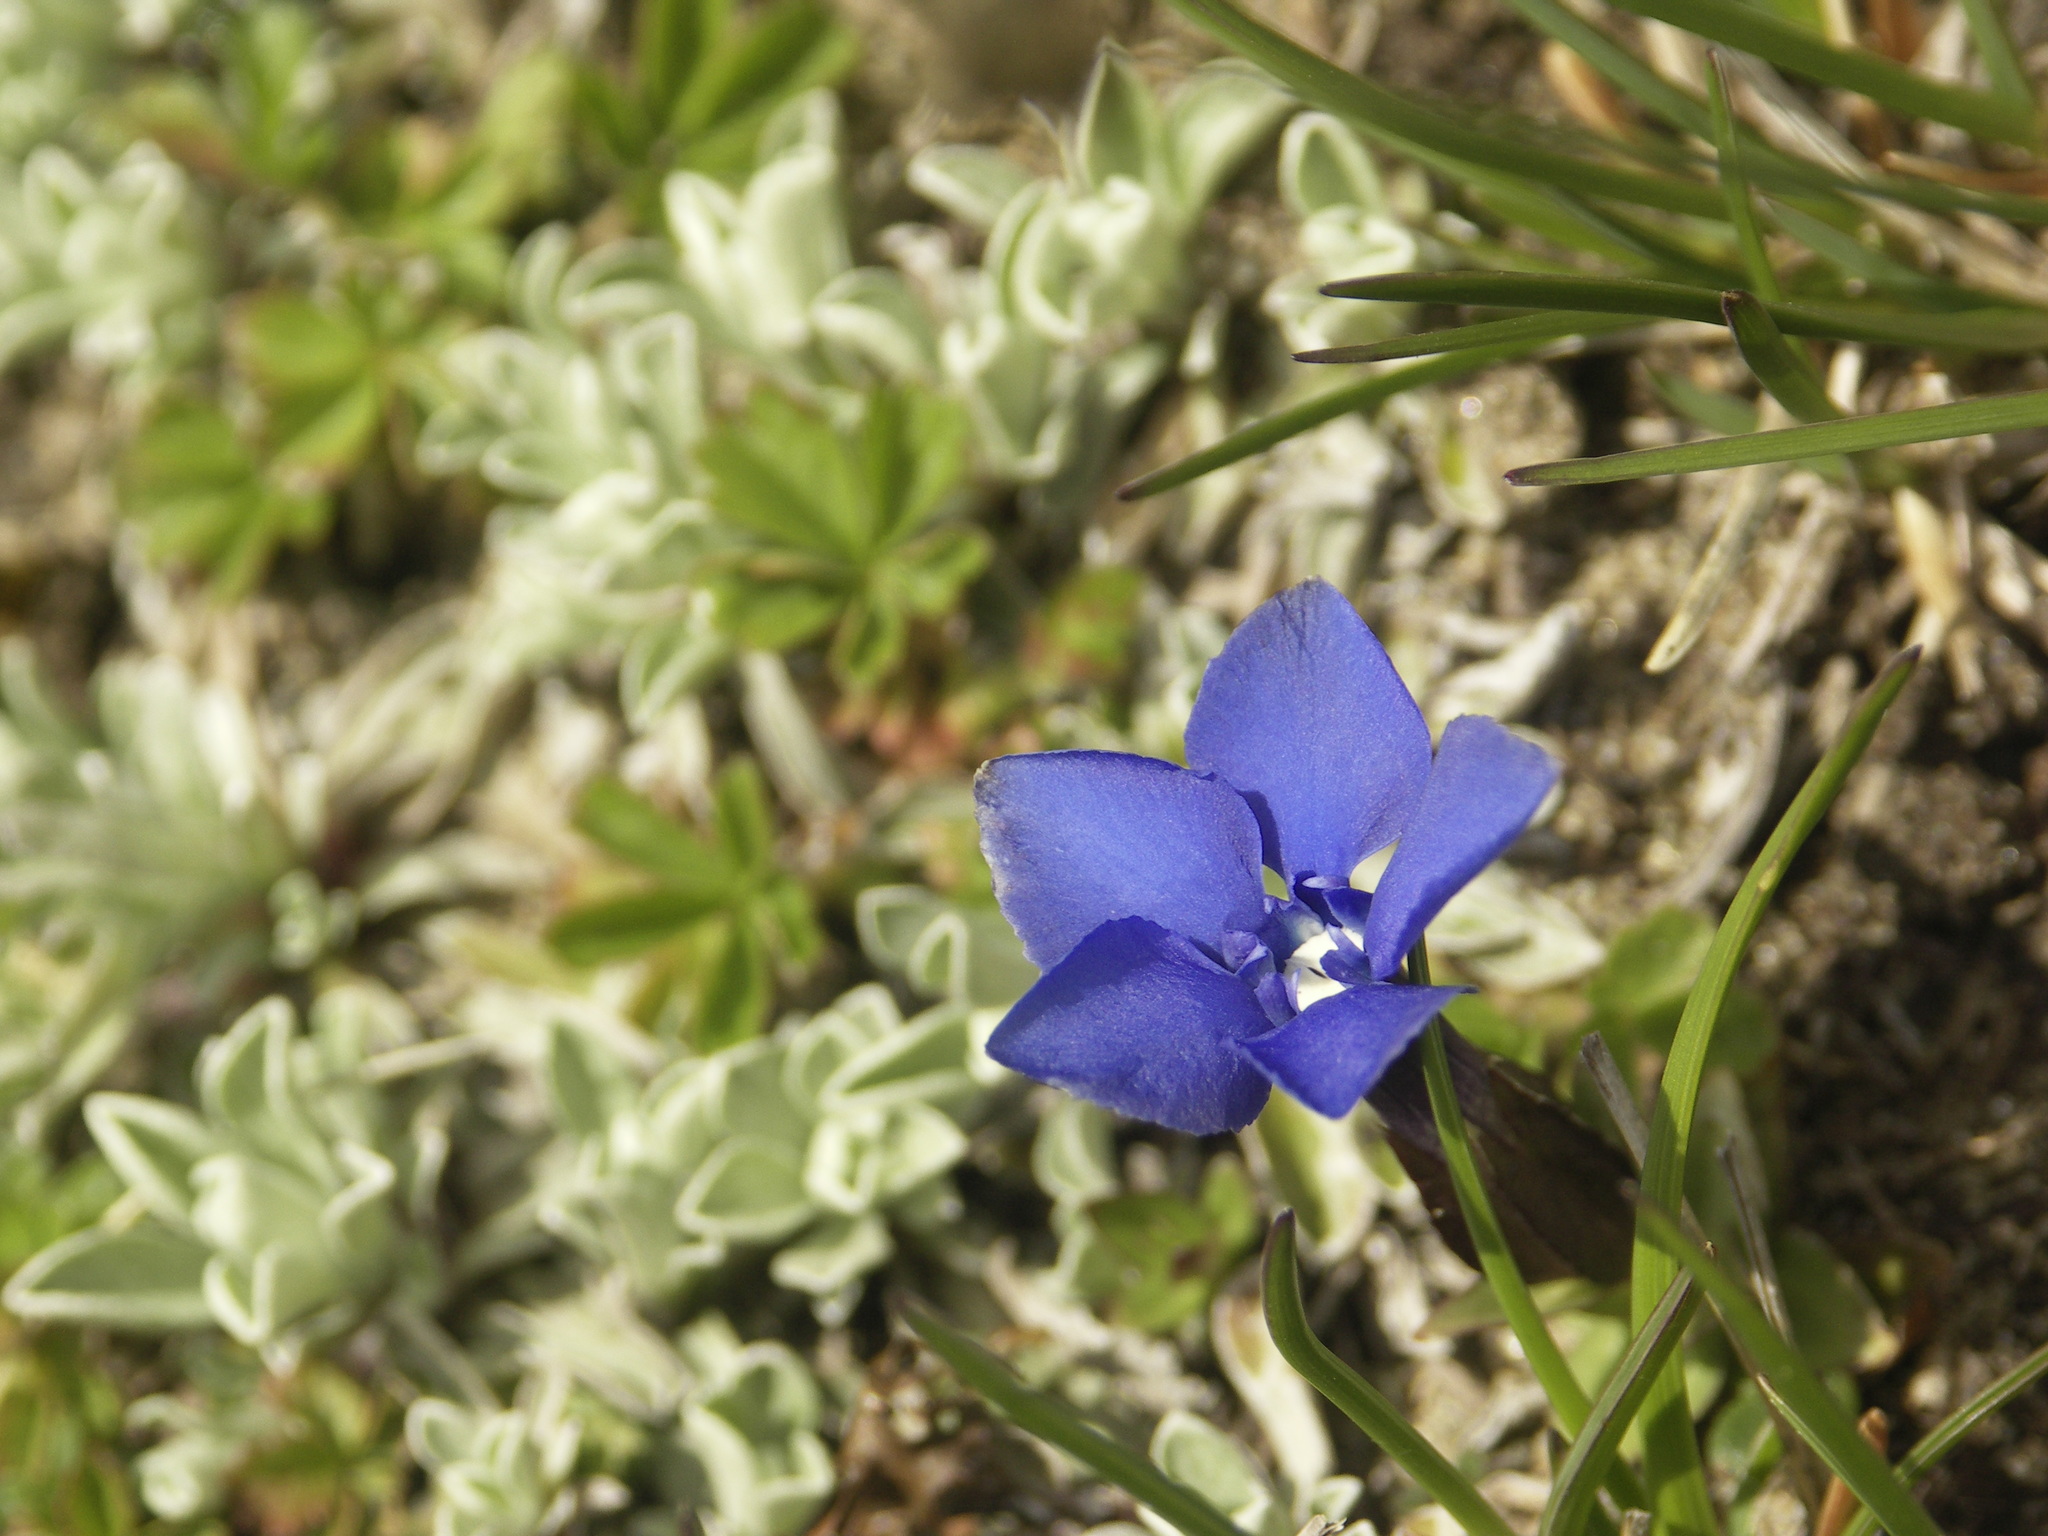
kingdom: Plantae
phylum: Tracheophyta
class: Magnoliopsida
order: Gentianales
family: Gentianaceae
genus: Gentiana
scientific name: Gentiana verna
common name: Spring gentian
